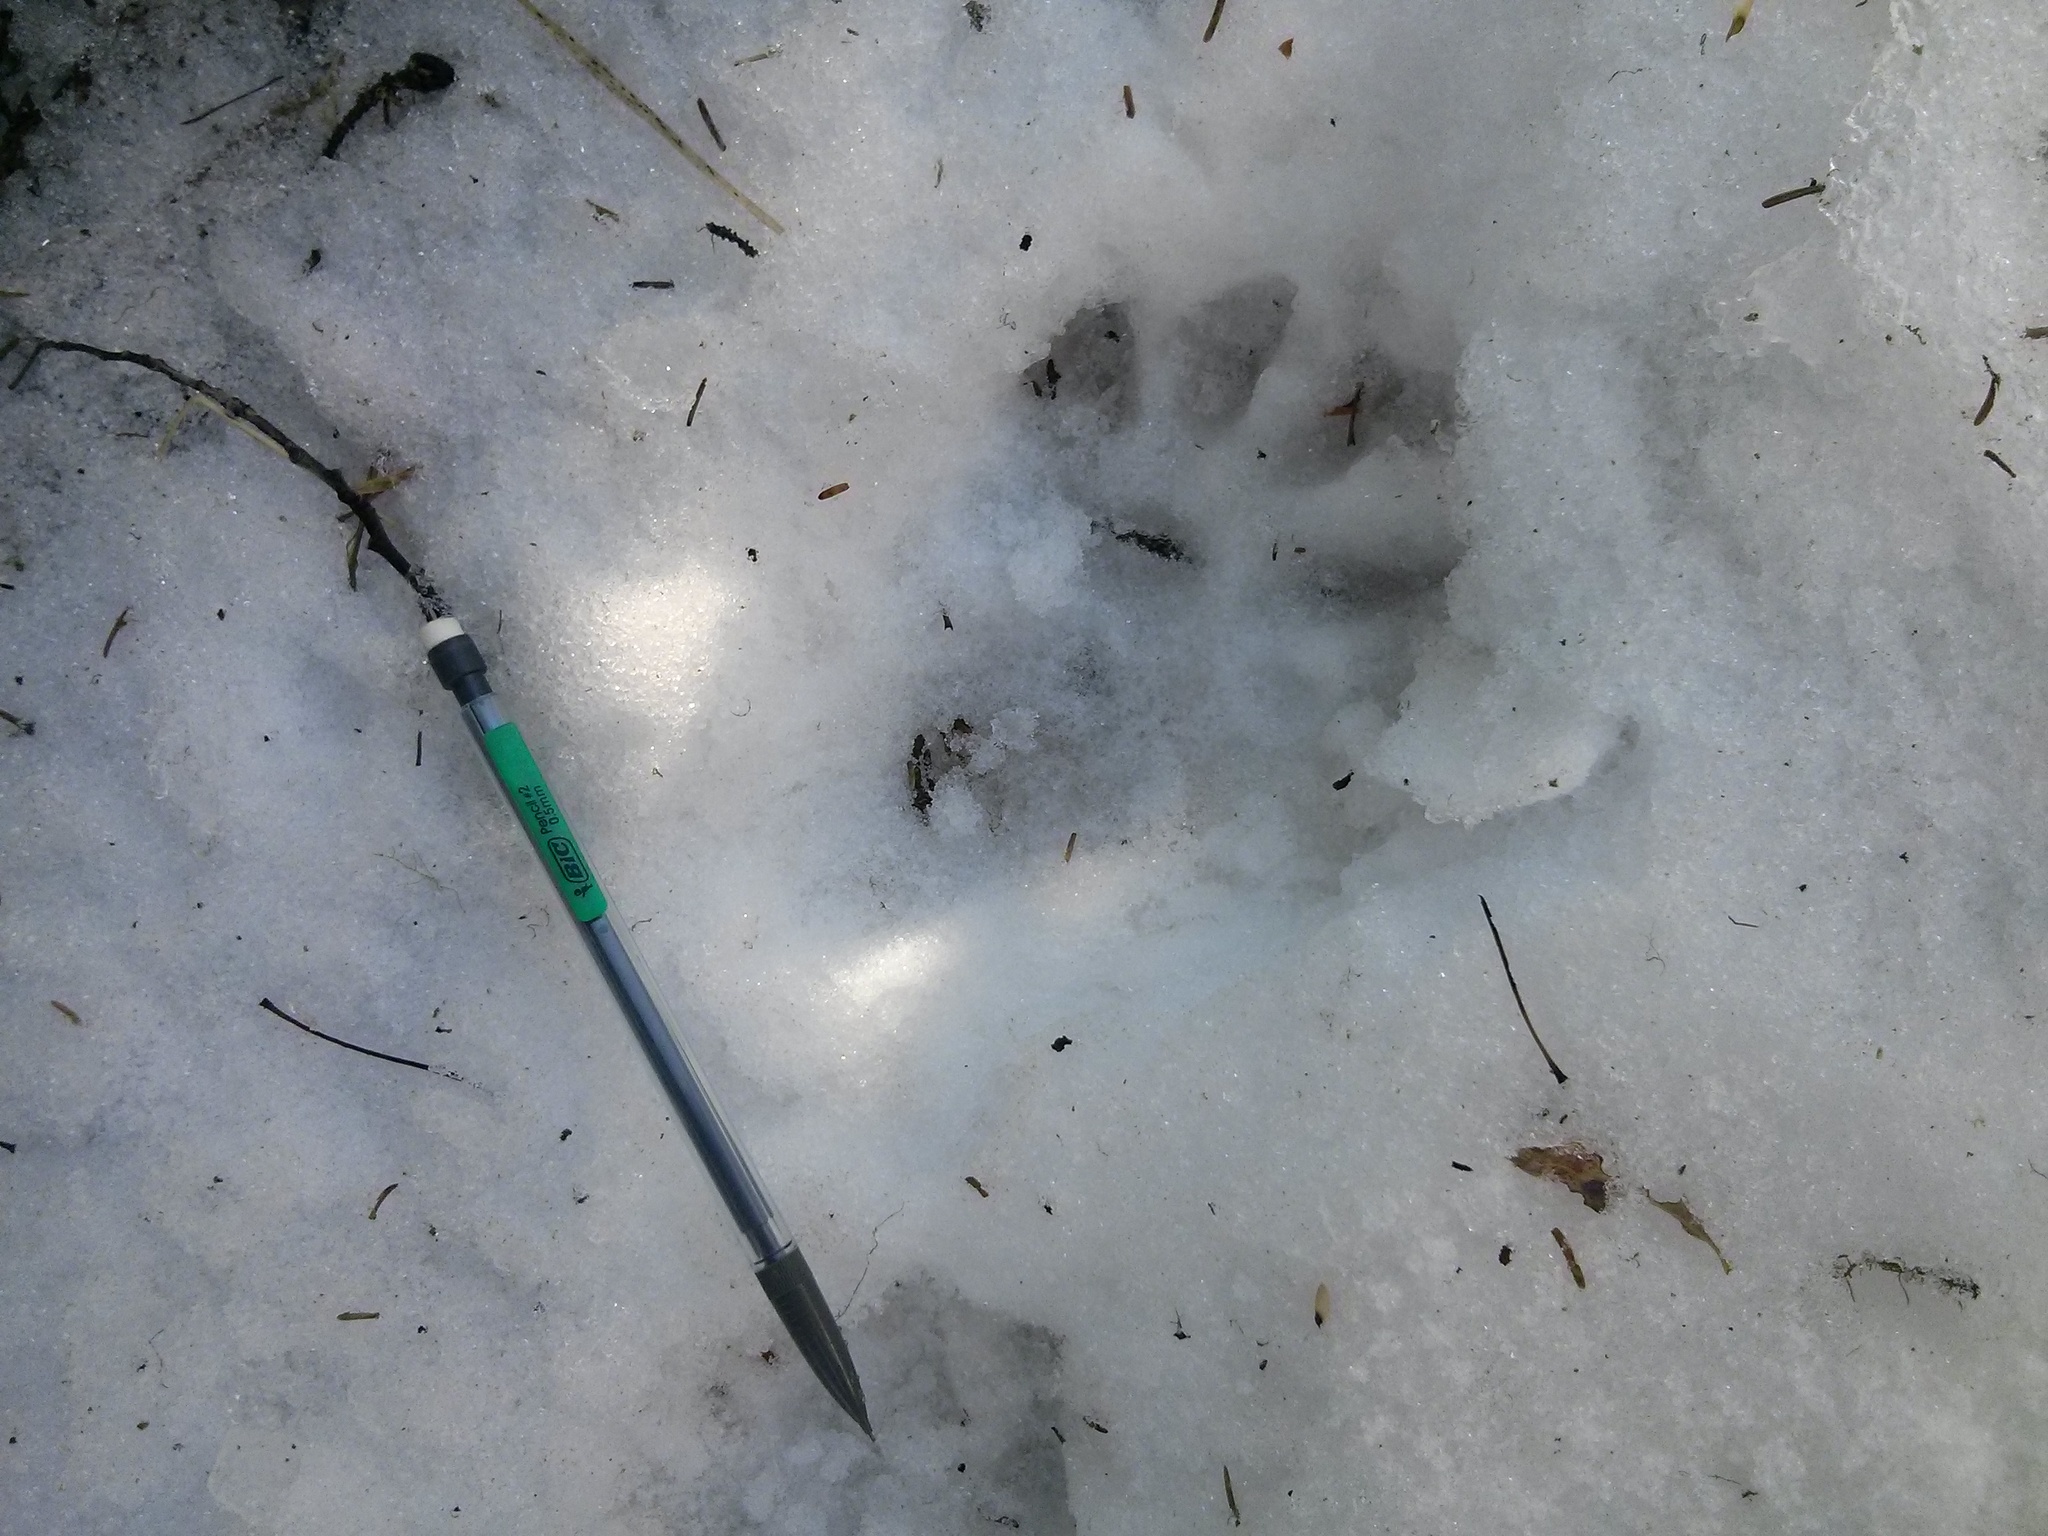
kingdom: Animalia
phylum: Chordata
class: Mammalia
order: Carnivora
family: Mustelidae
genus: Gulo
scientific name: Gulo gulo
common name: Wolverine
